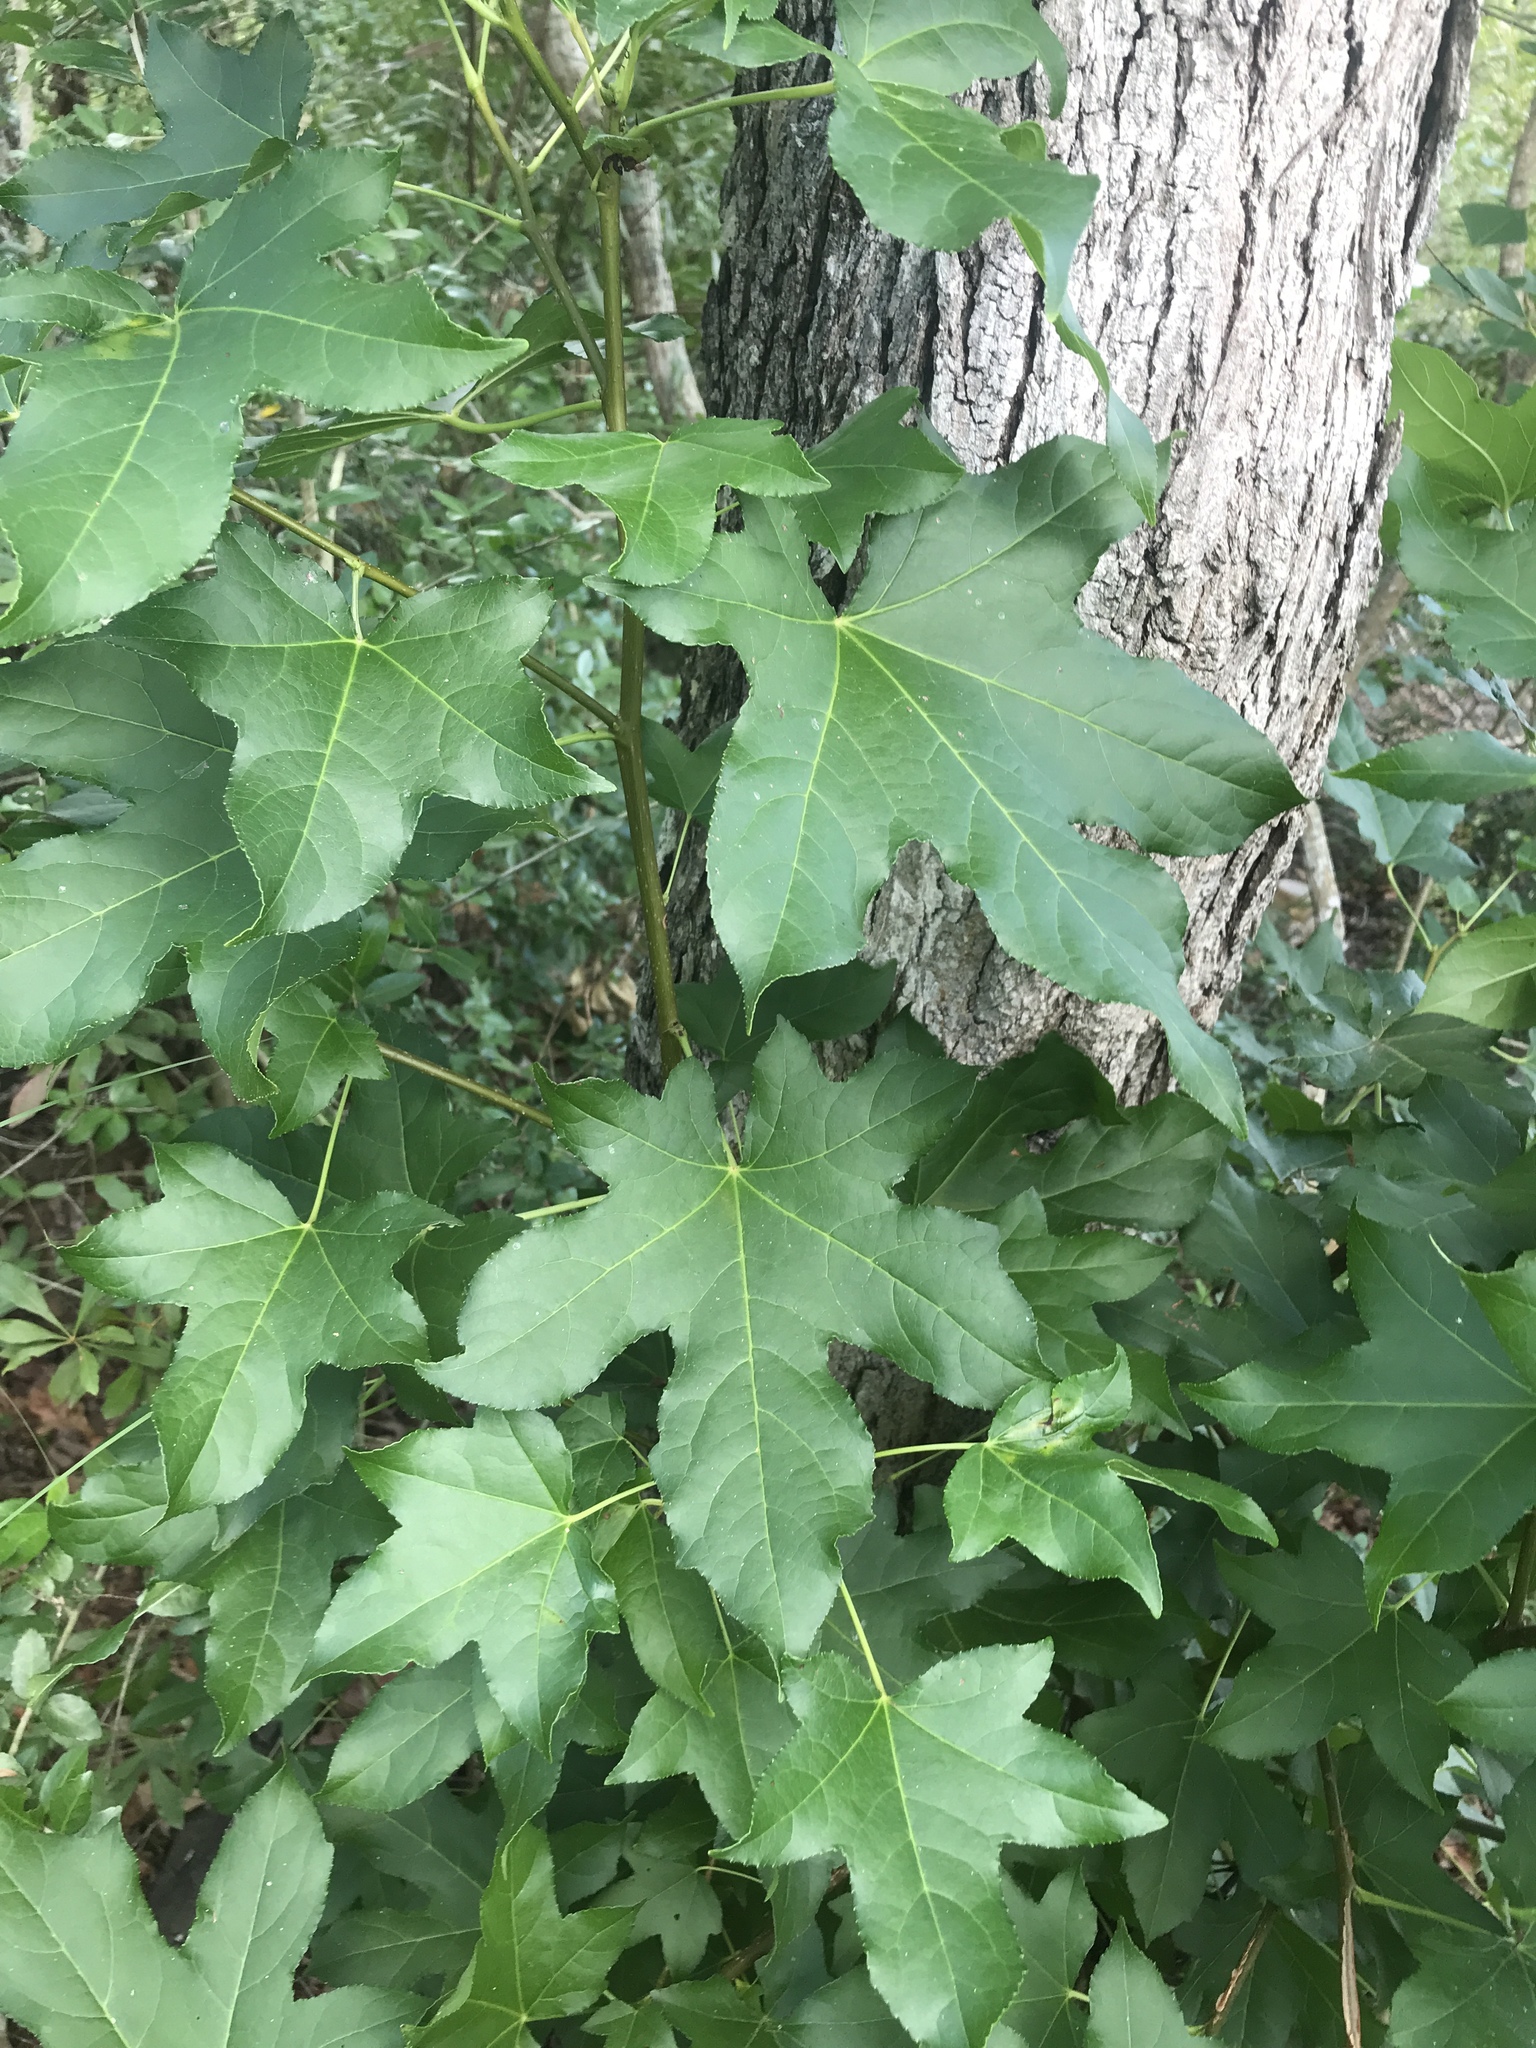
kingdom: Plantae
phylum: Tracheophyta
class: Magnoliopsida
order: Saxifragales
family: Altingiaceae
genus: Liquidambar
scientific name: Liquidambar styraciflua
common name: Sweet gum
